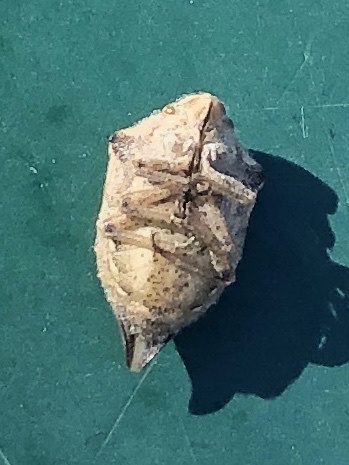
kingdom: Animalia
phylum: Arthropoda
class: Insecta
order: Hemiptera
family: Scutelleridae
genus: Odontotarsus
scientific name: Odontotarsus caudatus
